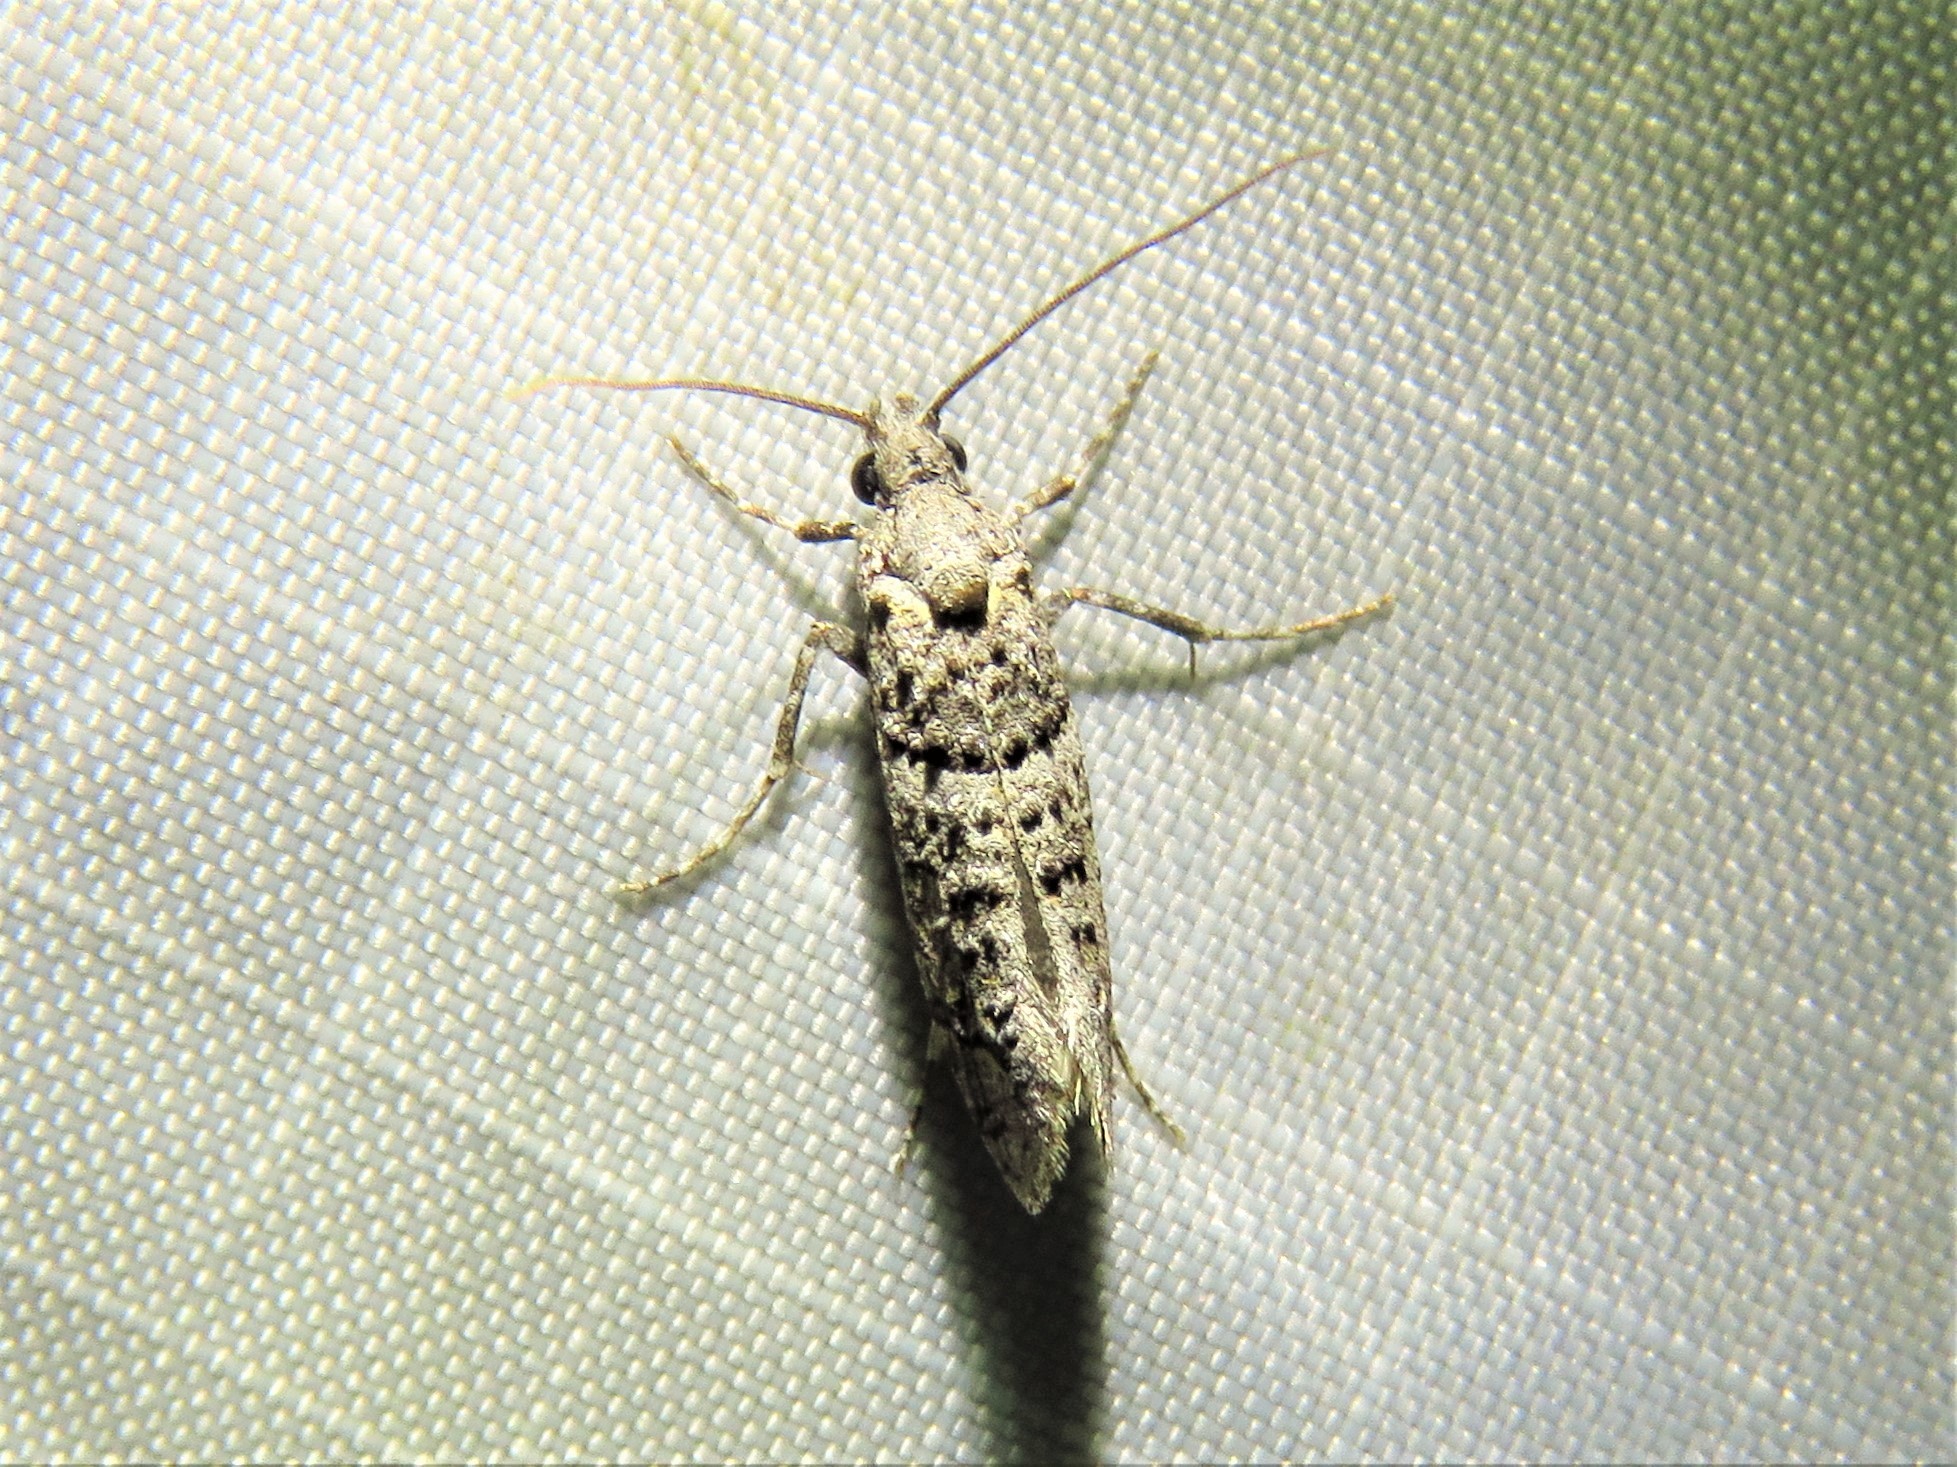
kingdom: Animalia
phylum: Arthropoda
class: Insecta
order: Lepidoptera
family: Tineidae
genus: Dyotopasta
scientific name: Dyotopasta yumaella
